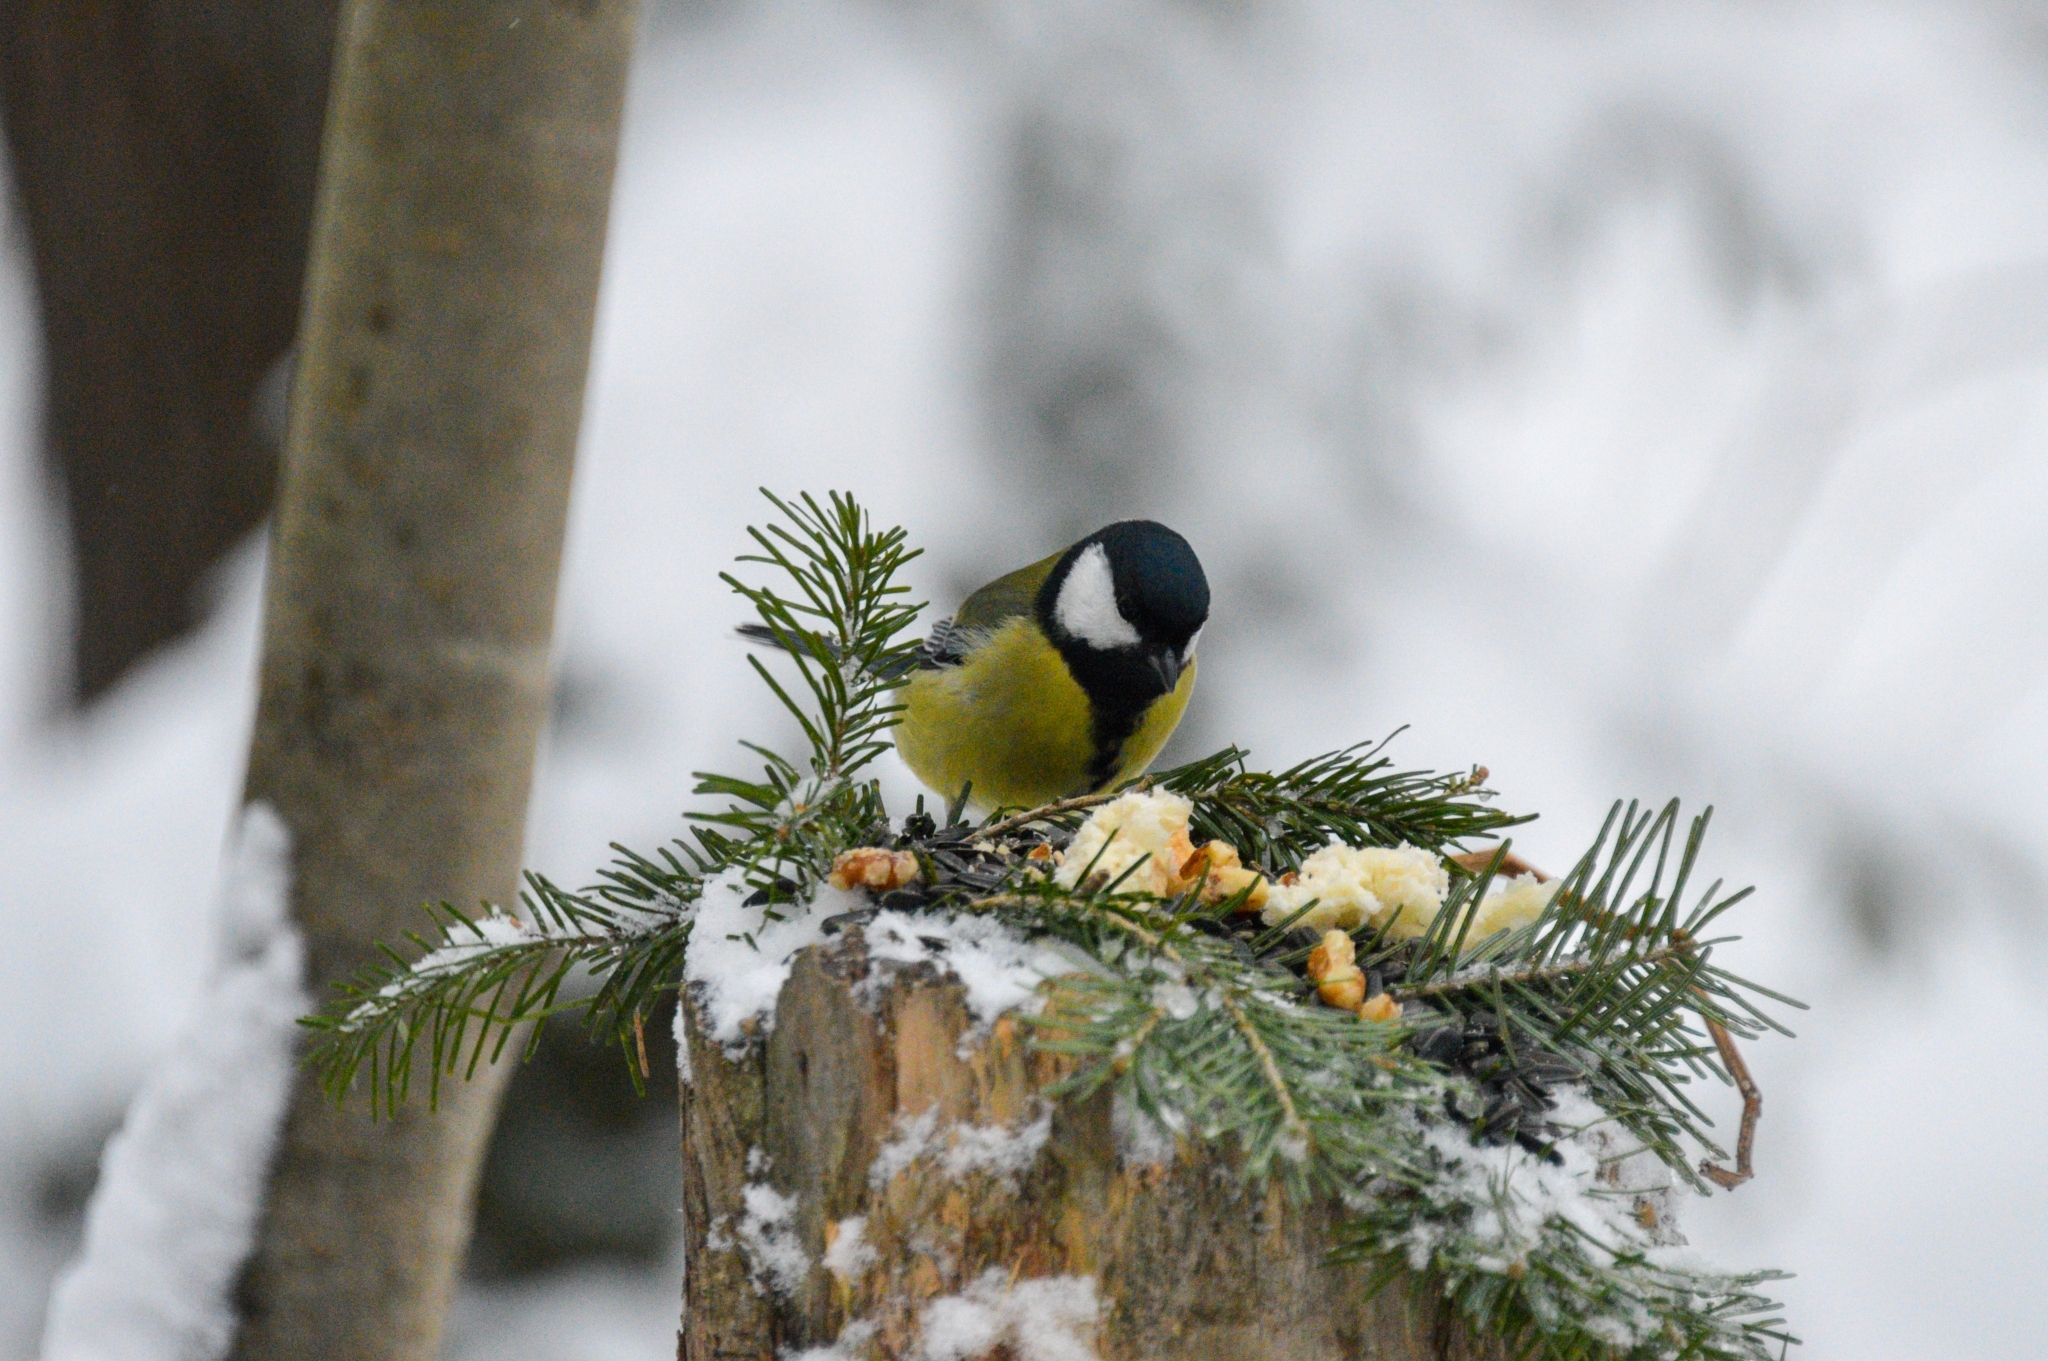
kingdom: Animalia
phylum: Chordata
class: Aves
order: Passeriformes
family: Paridae
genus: Parus
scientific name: Parus major
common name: Great tit
